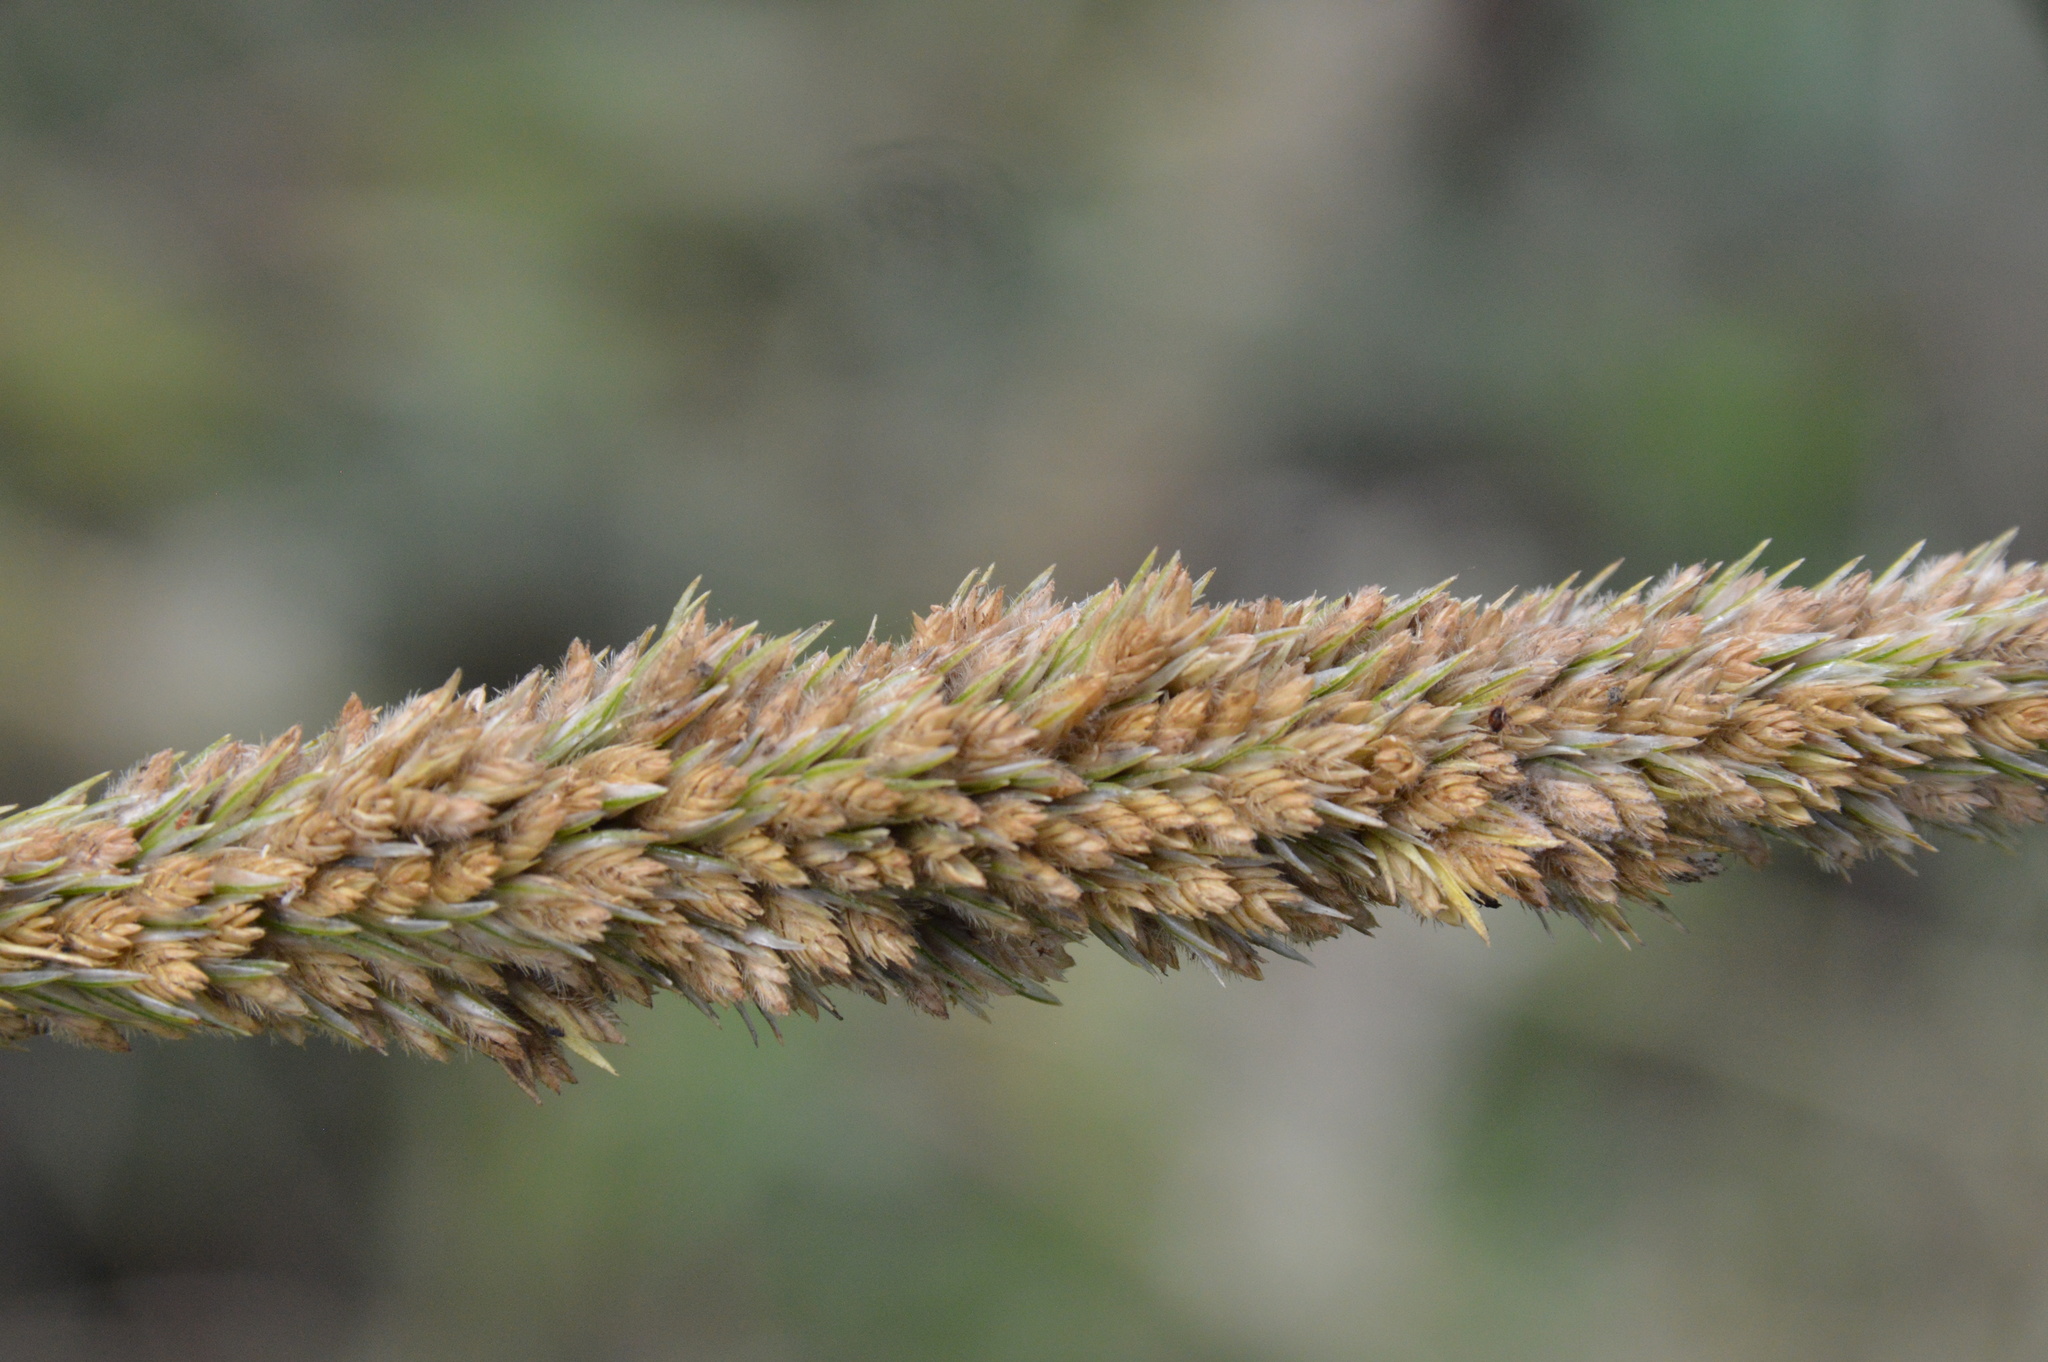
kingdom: Plantae
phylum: Tracheophyta
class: Liliopsida
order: Poales
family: Poaceae
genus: Tridens
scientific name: Tridens strictus
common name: Long-spike tridens
